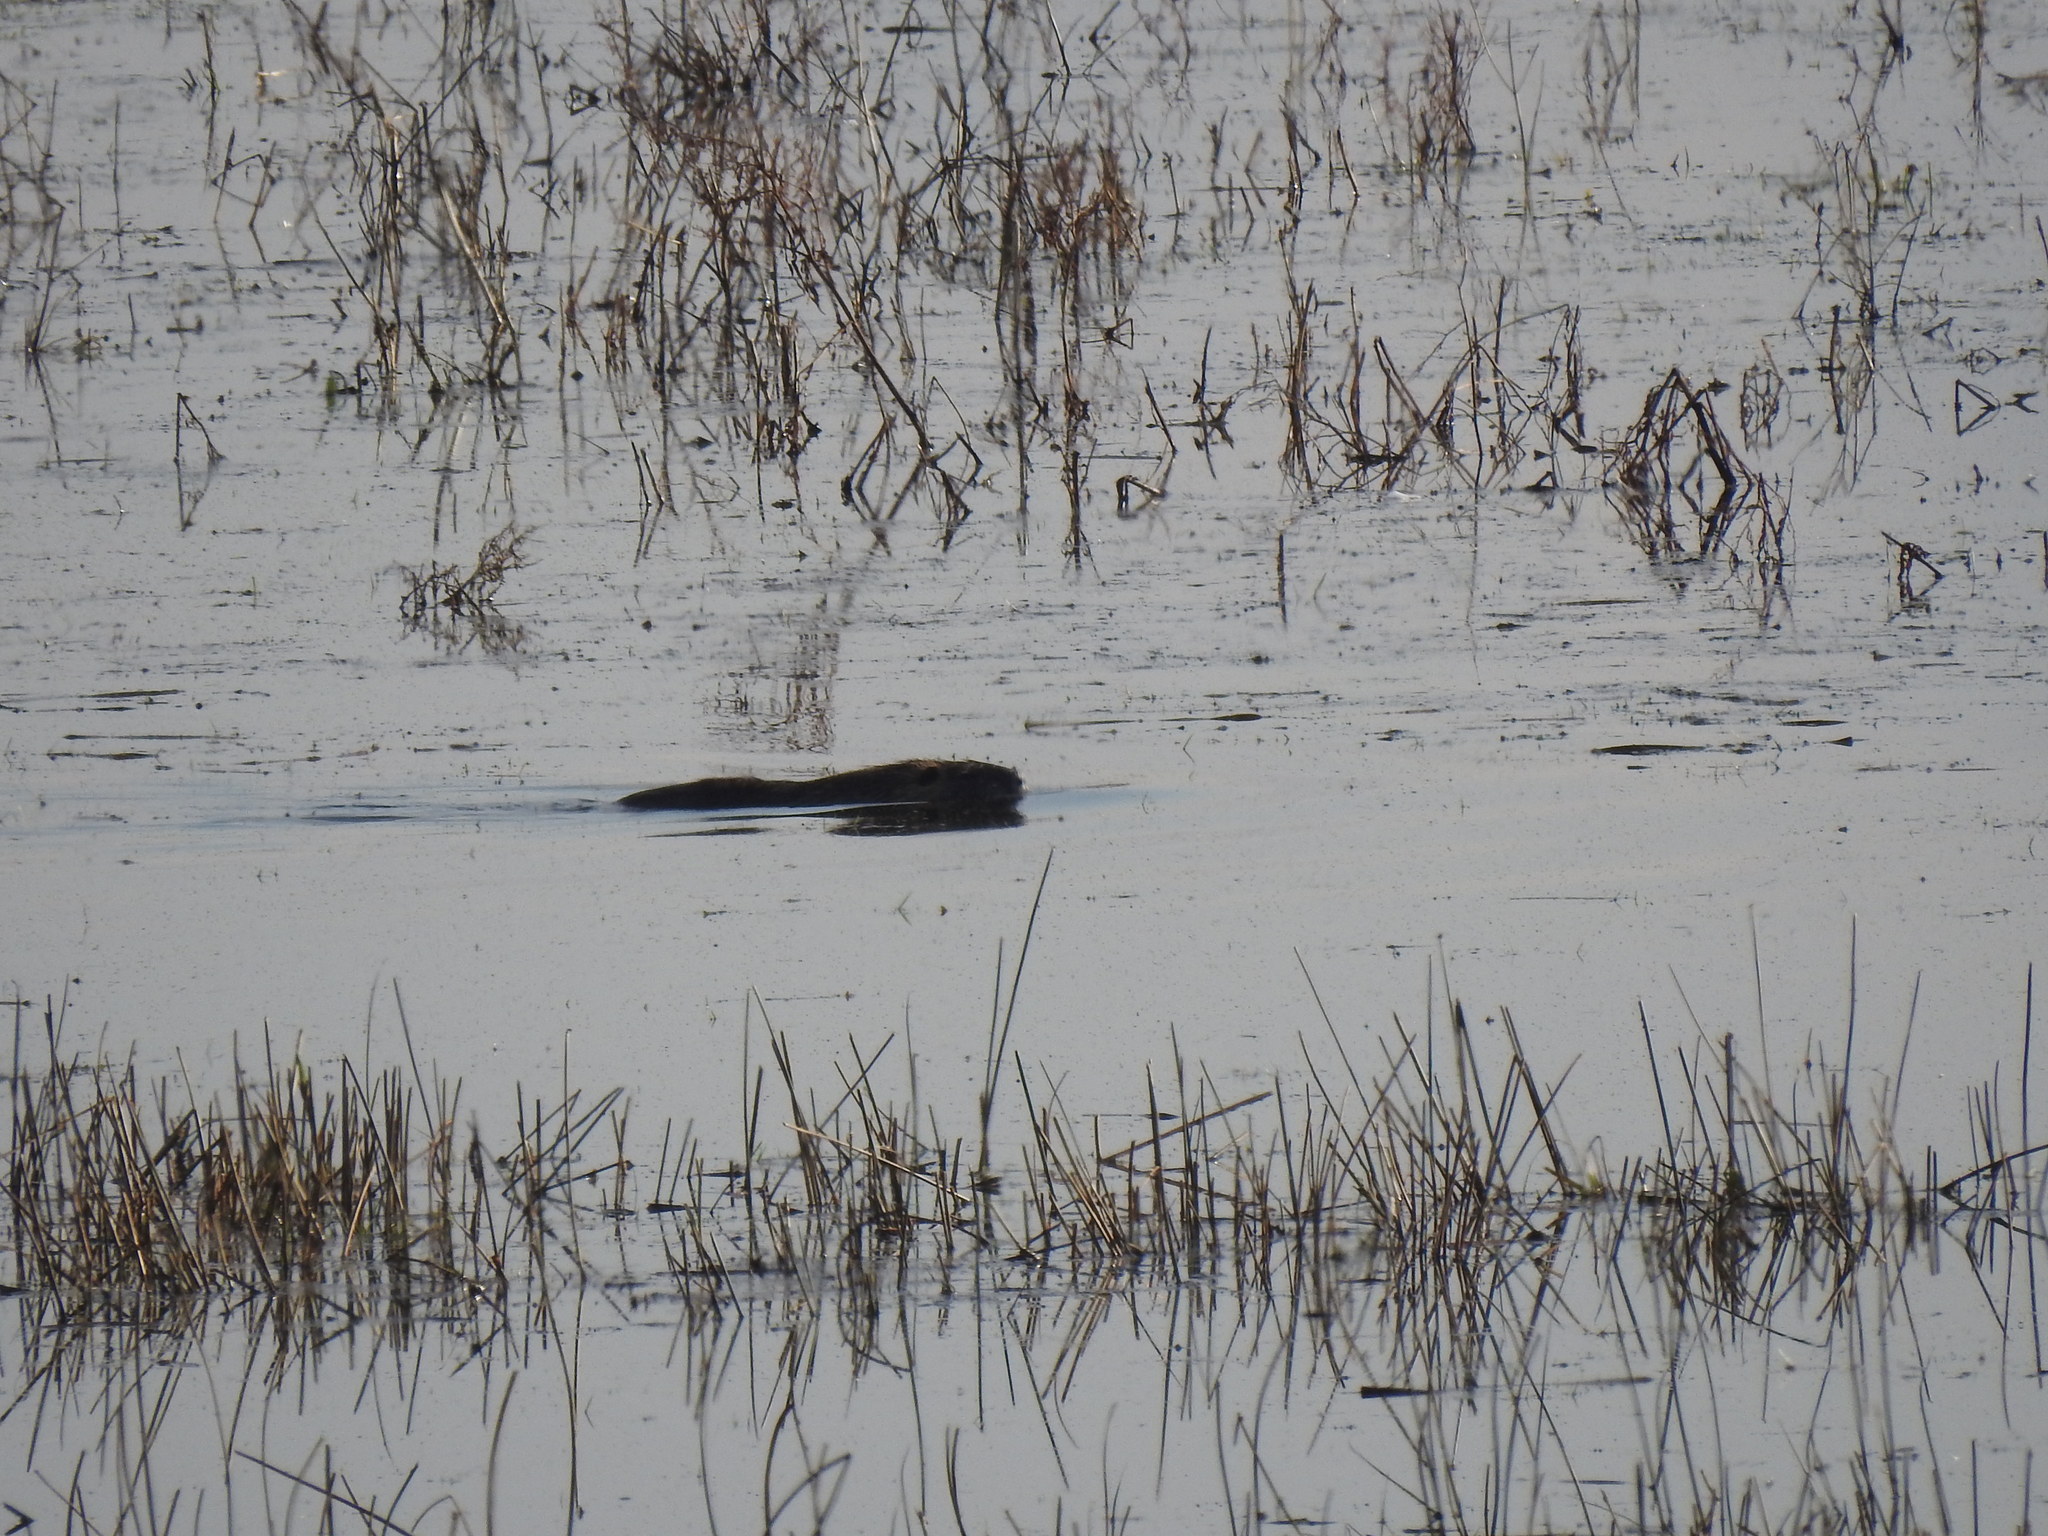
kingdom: Animalia
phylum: Chordata
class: Mammalia
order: Rodentia
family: Myocastoridae
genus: Myocastor
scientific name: Myocastor coypus
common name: Coypu
